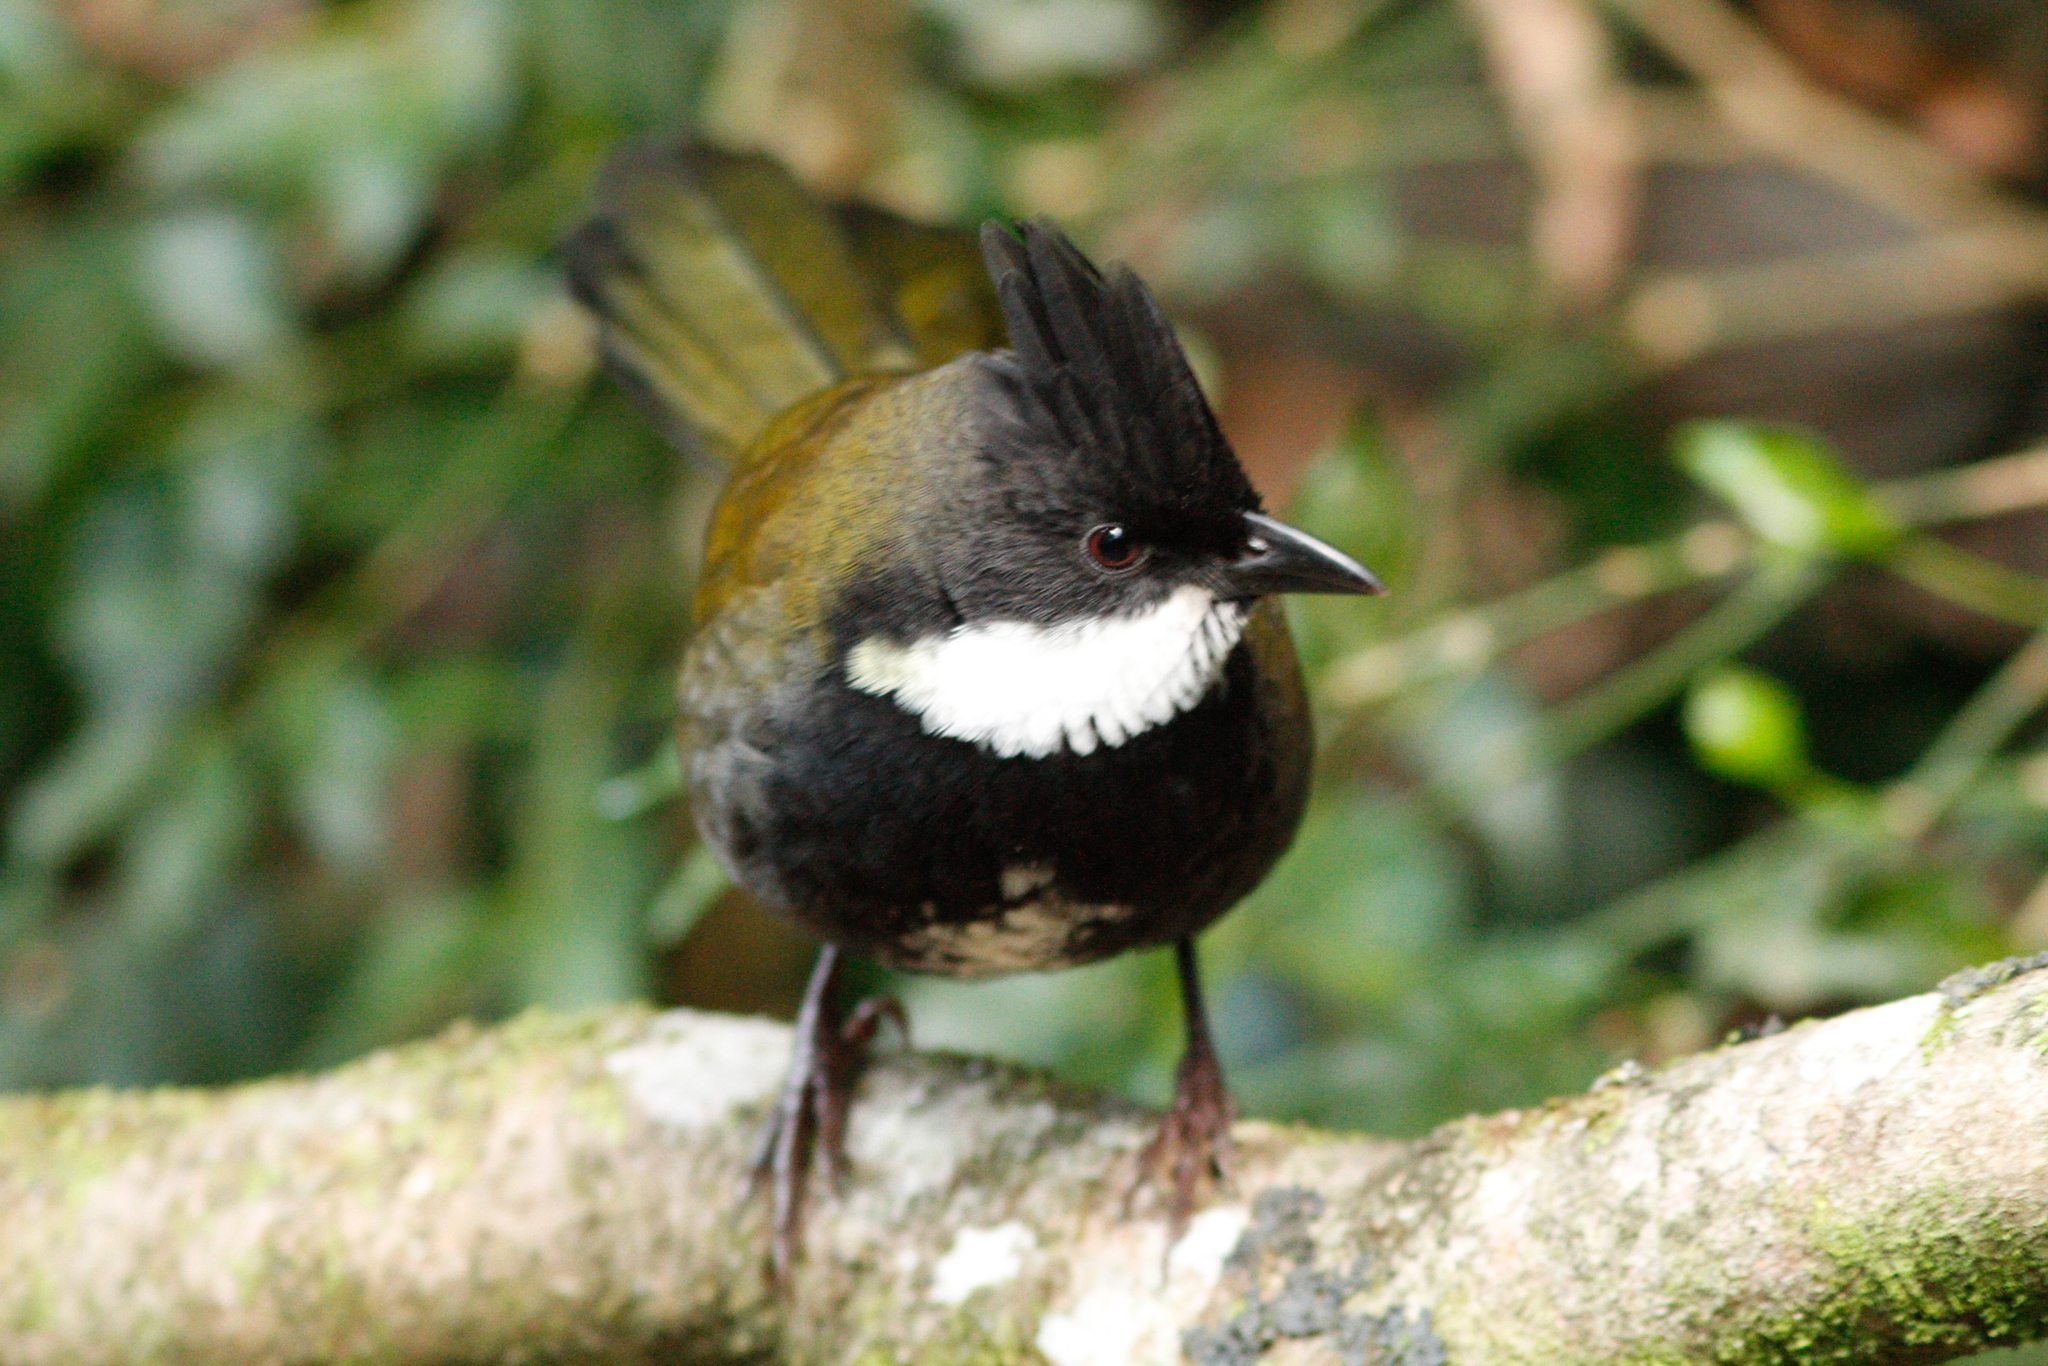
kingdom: Animalia
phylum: Chordata
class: Aves
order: Passeriformes
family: Psophodidae
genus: Psophodes
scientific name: Psophodes olivaceus
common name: Eastern whipbird
